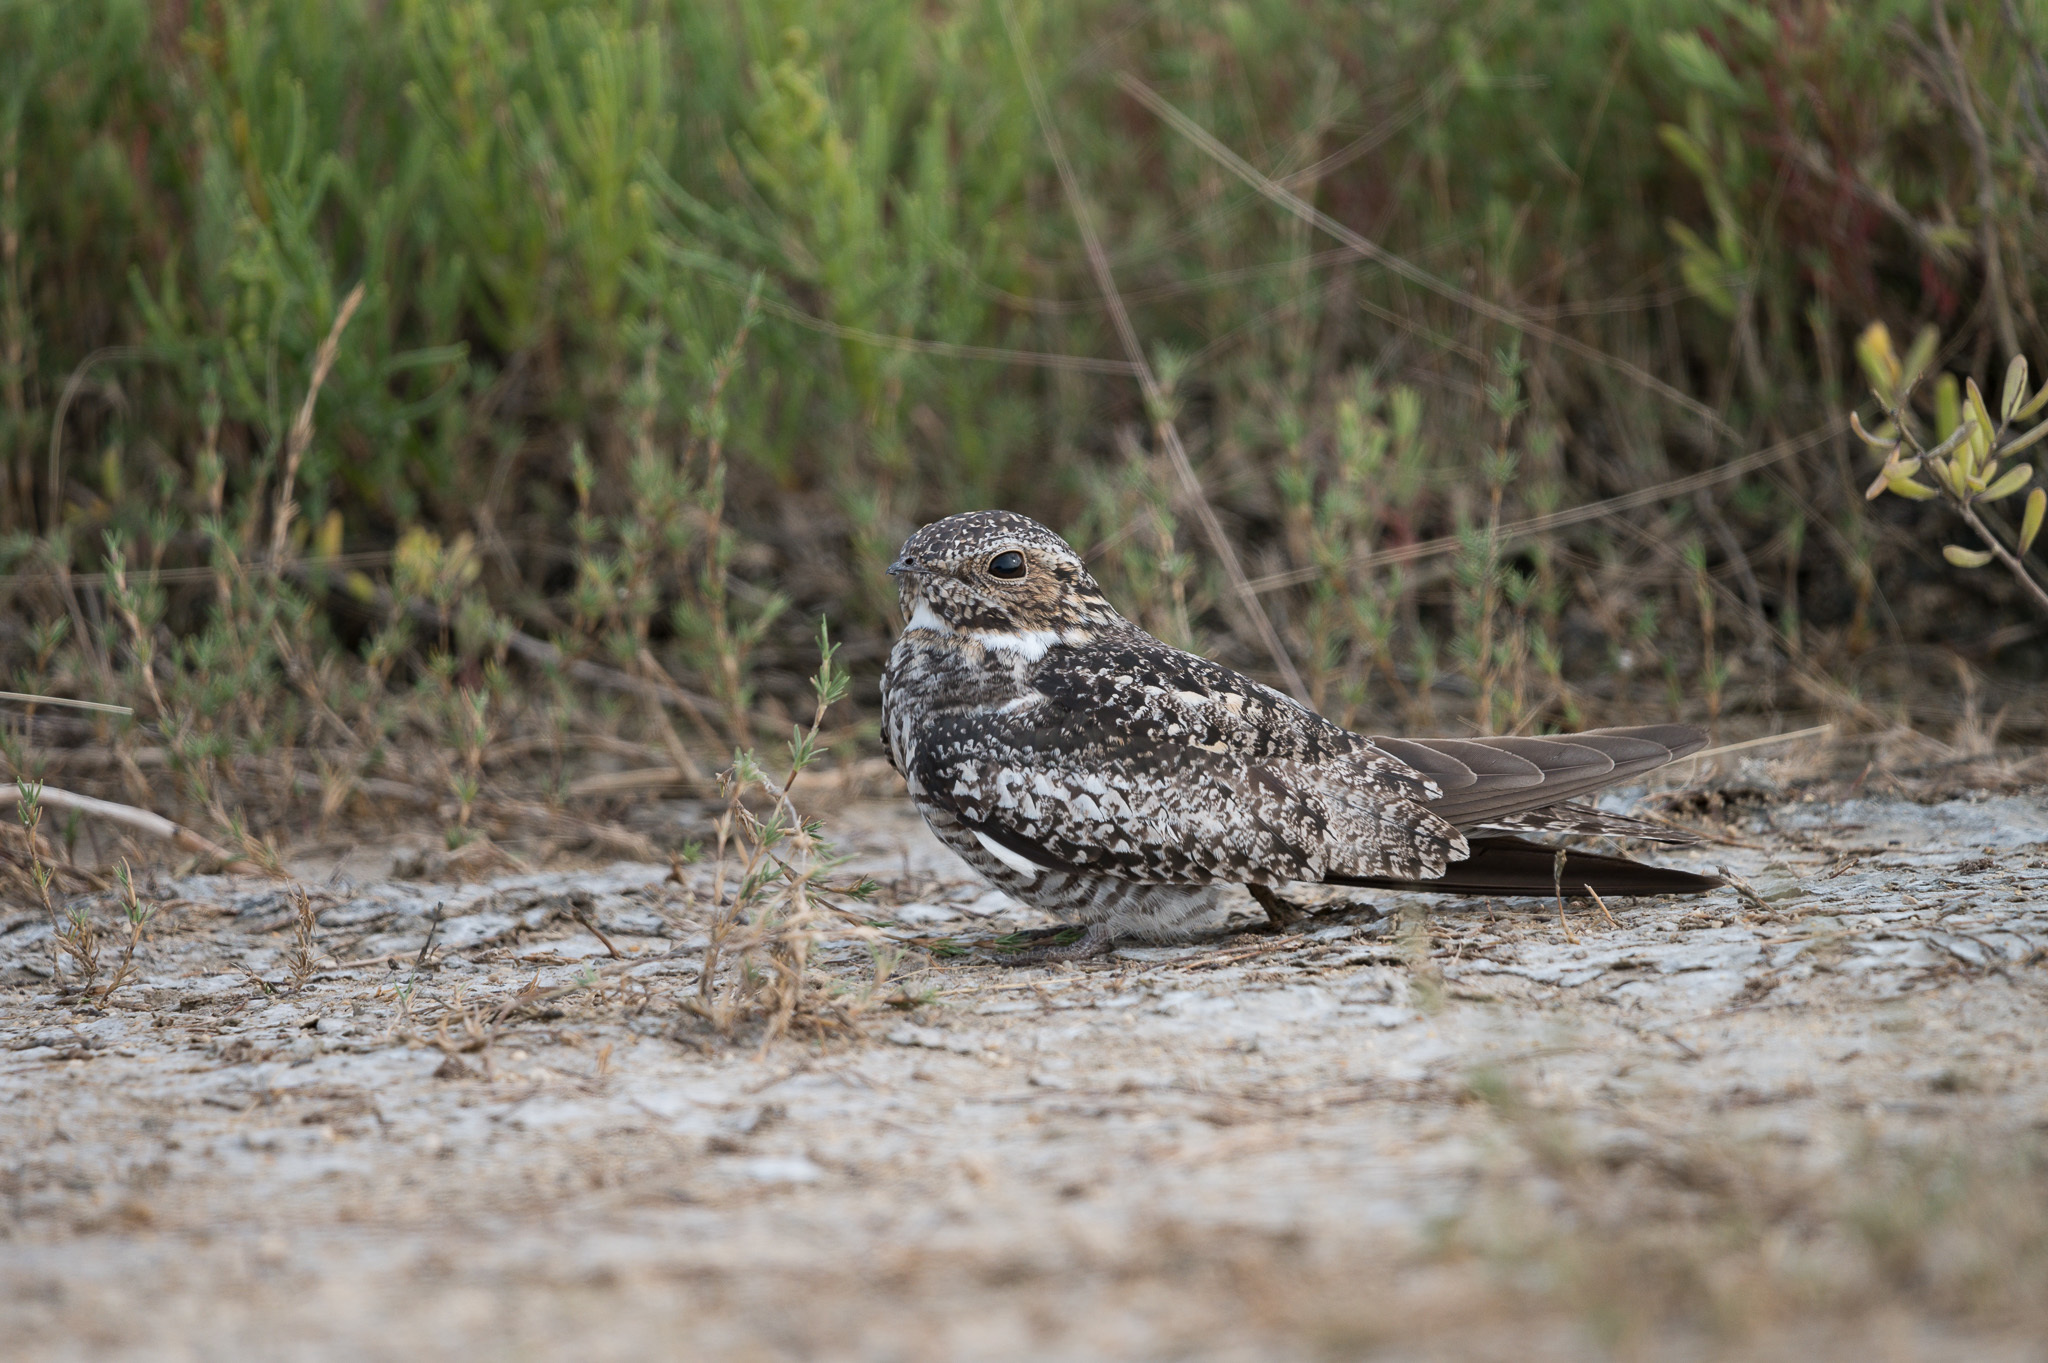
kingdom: Animalia
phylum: Chordata
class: Aves
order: Caprimulgiformes
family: Caprimulgidae
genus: Chordeiles
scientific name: Chordeiles minor
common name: Common nighthawk
